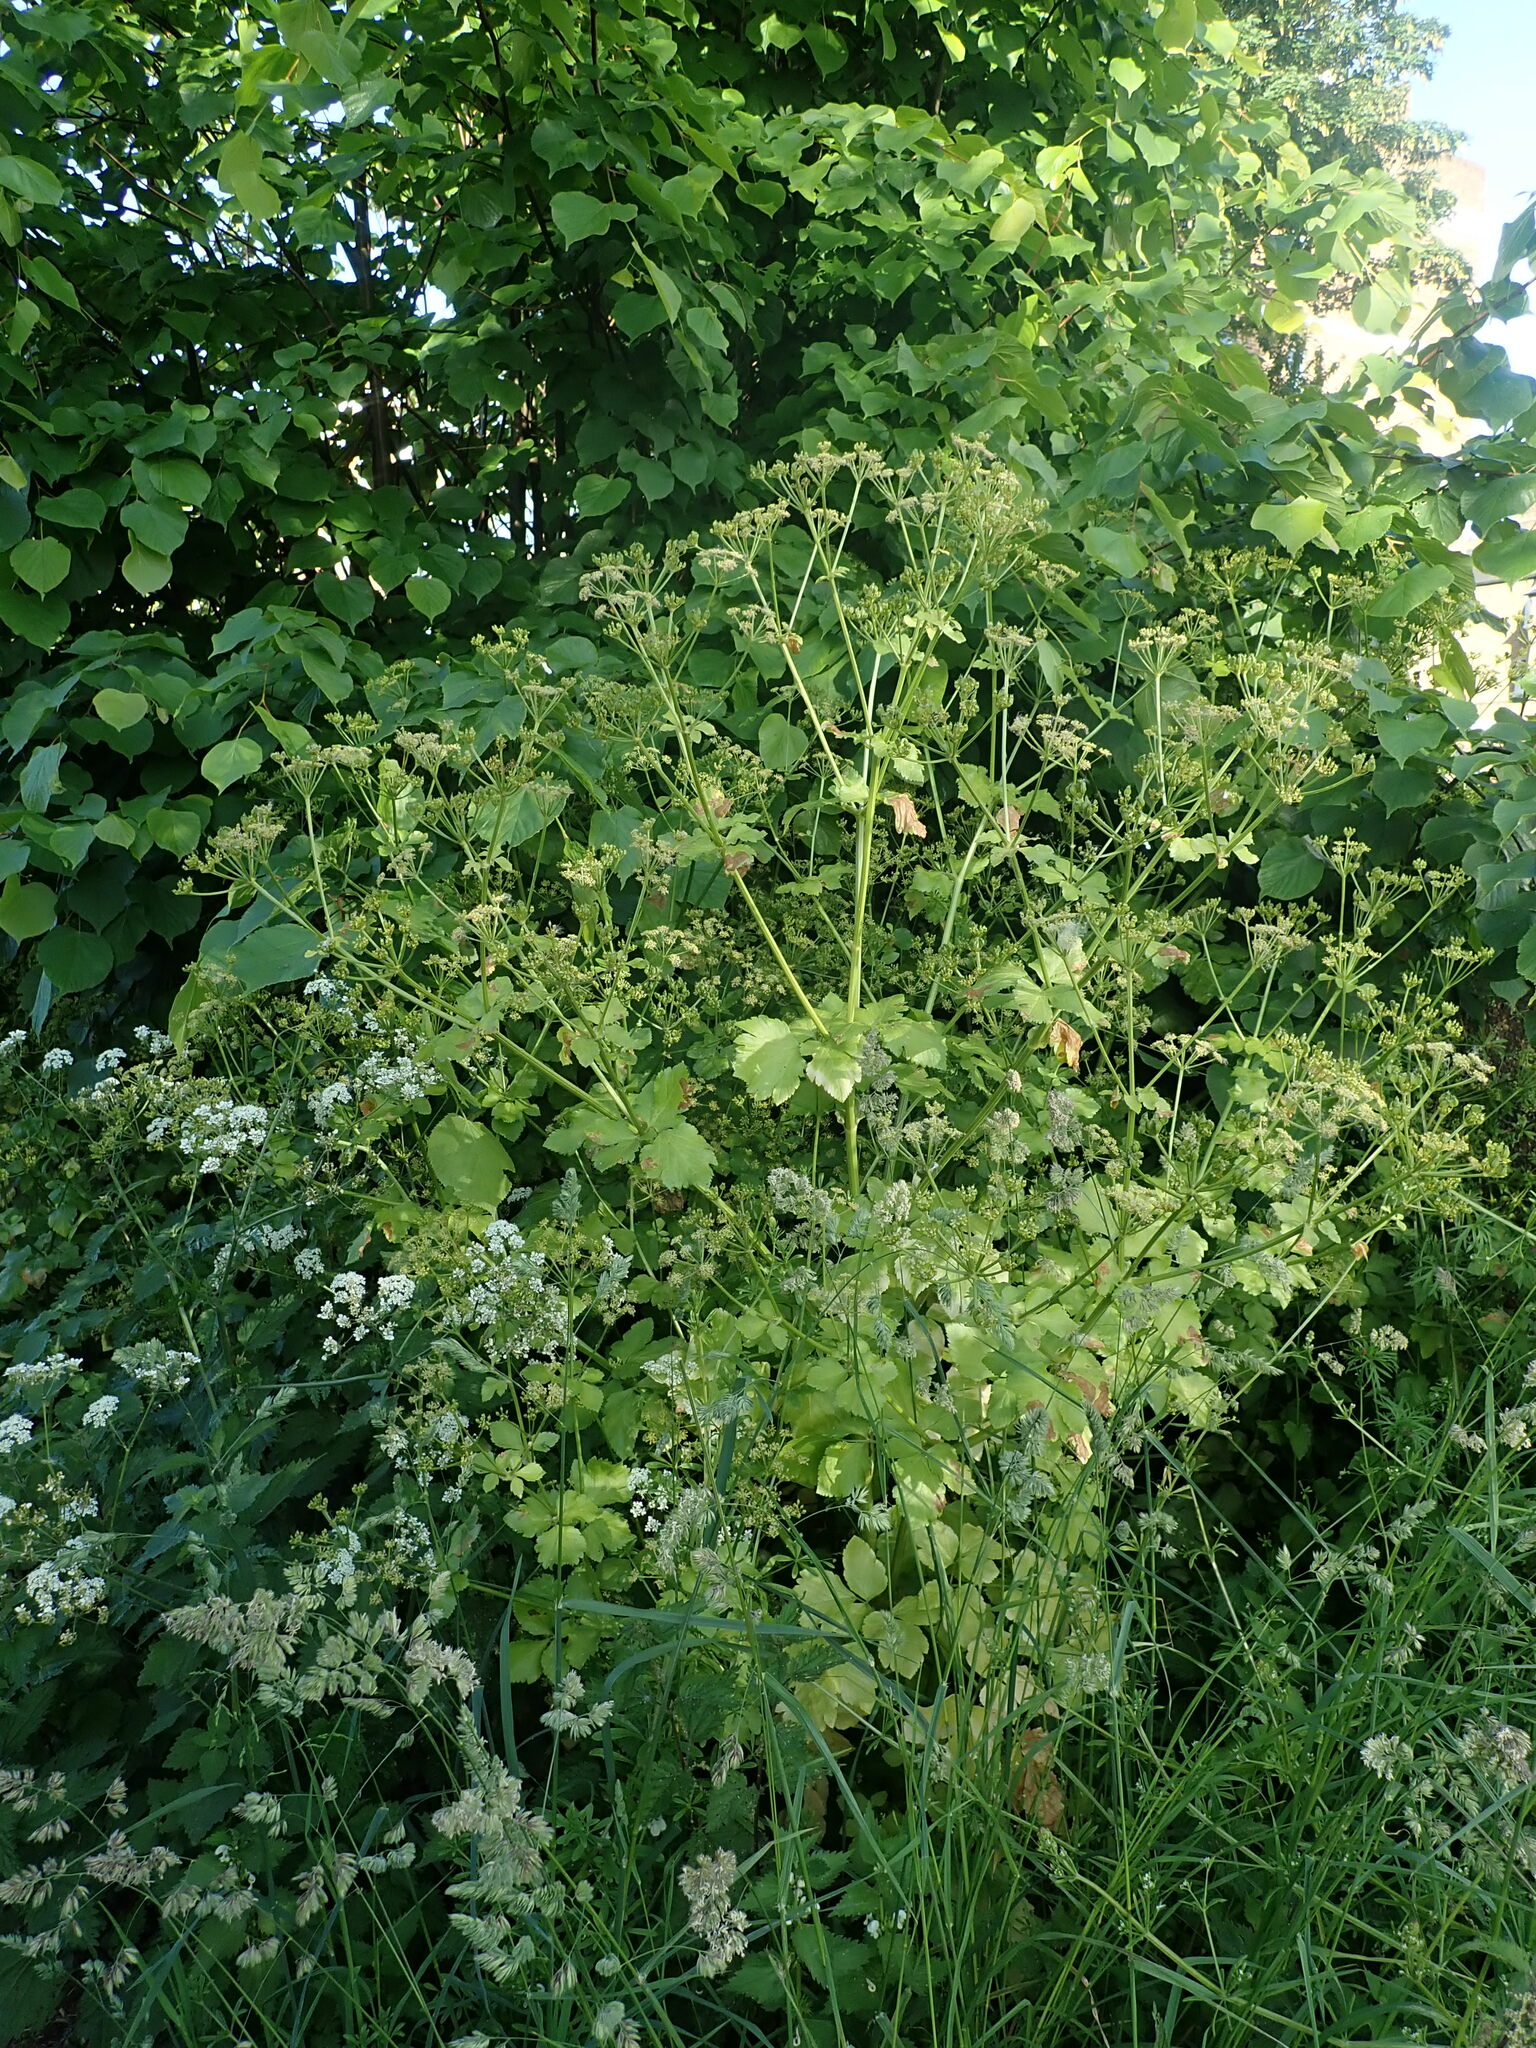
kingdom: Plantae
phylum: Tracheophyta
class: Magnoliopsida
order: Apiales
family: Apiaceae
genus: Smyrnium
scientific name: Smyrnium olusatrum
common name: Alexanders
